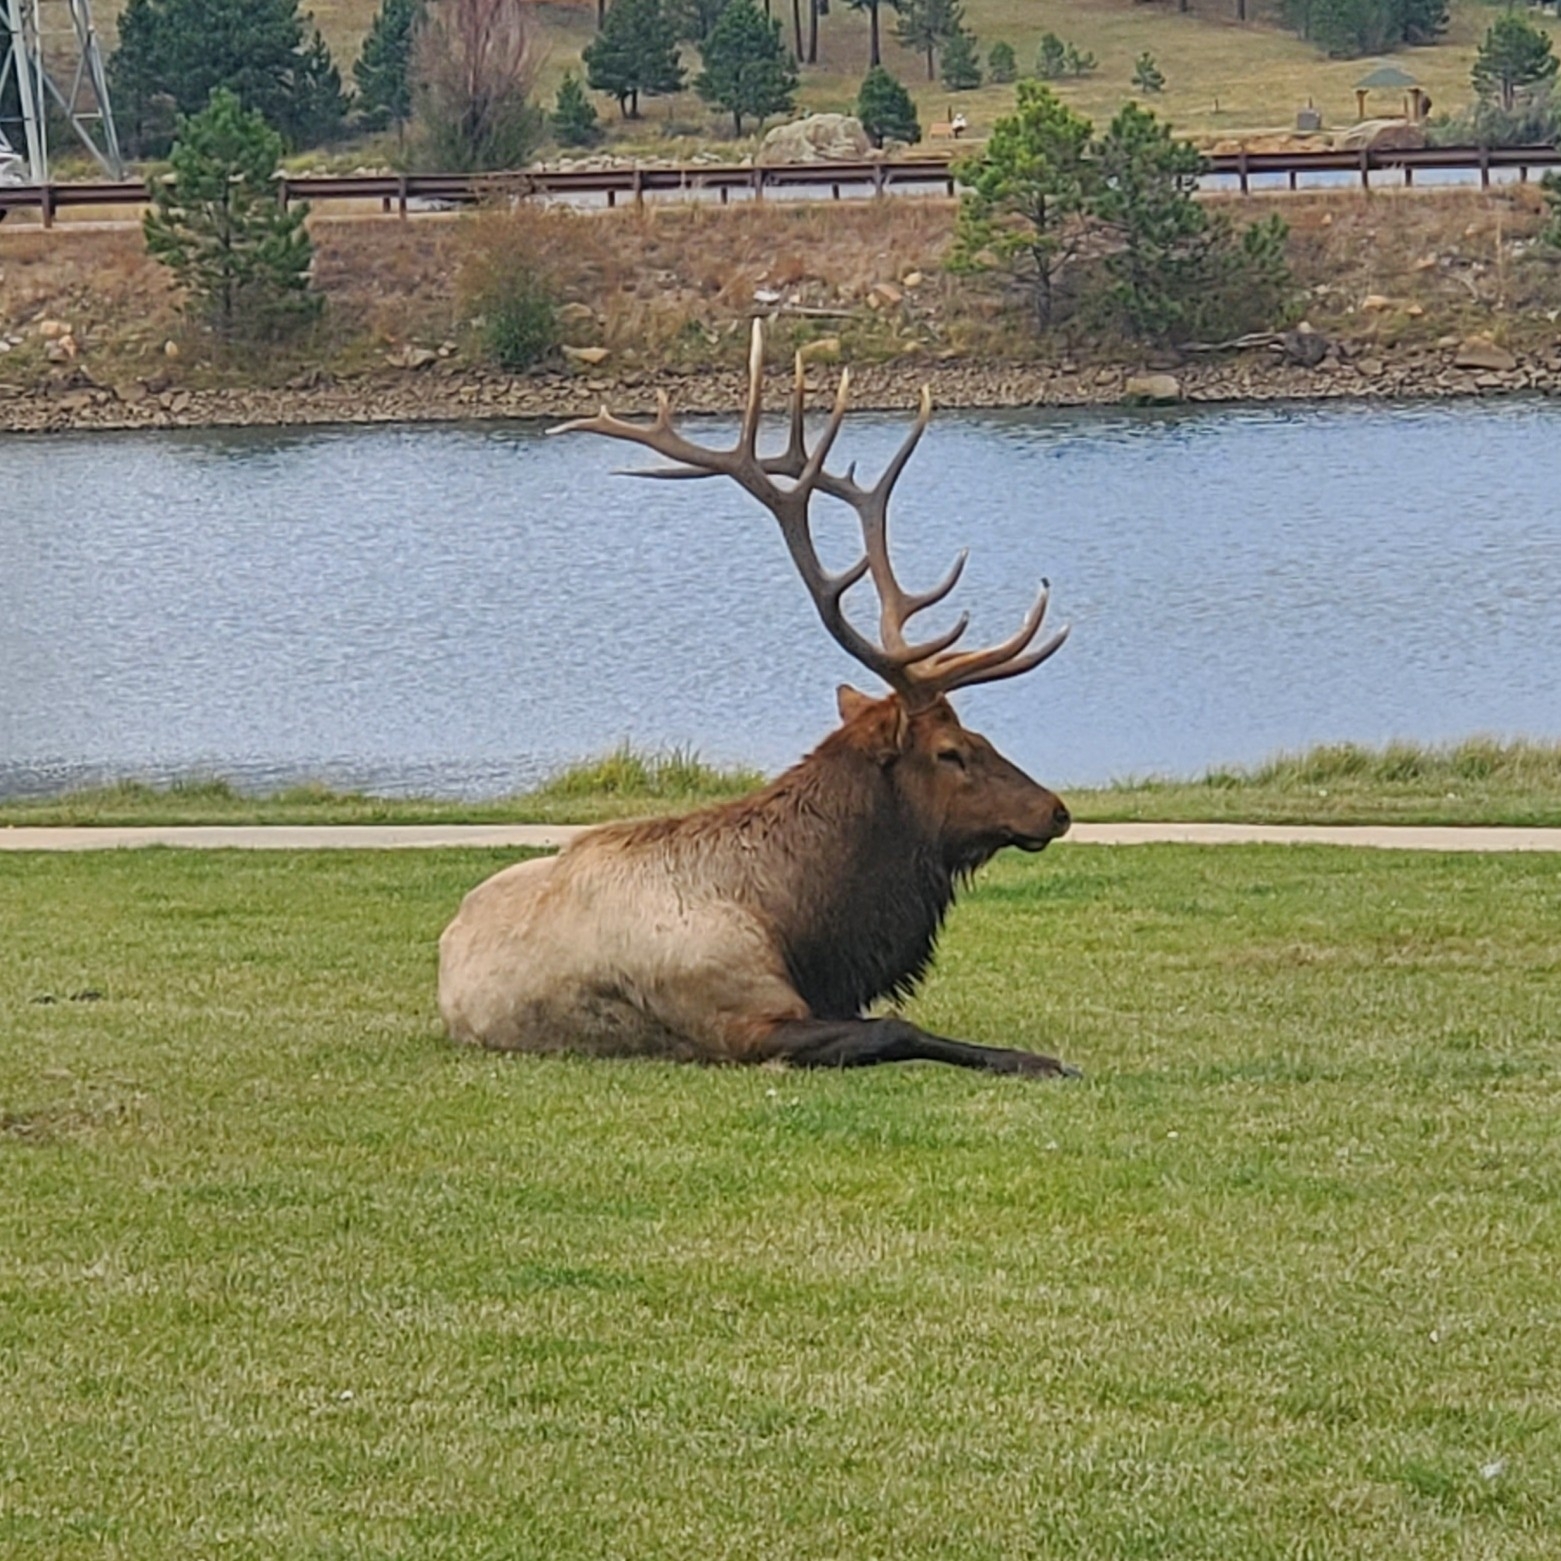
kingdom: Animalia
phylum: Chordata
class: Mammalia
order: Artiodactyla
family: Cervidae
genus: Cervus
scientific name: Cervus elaphus
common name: Red deer
